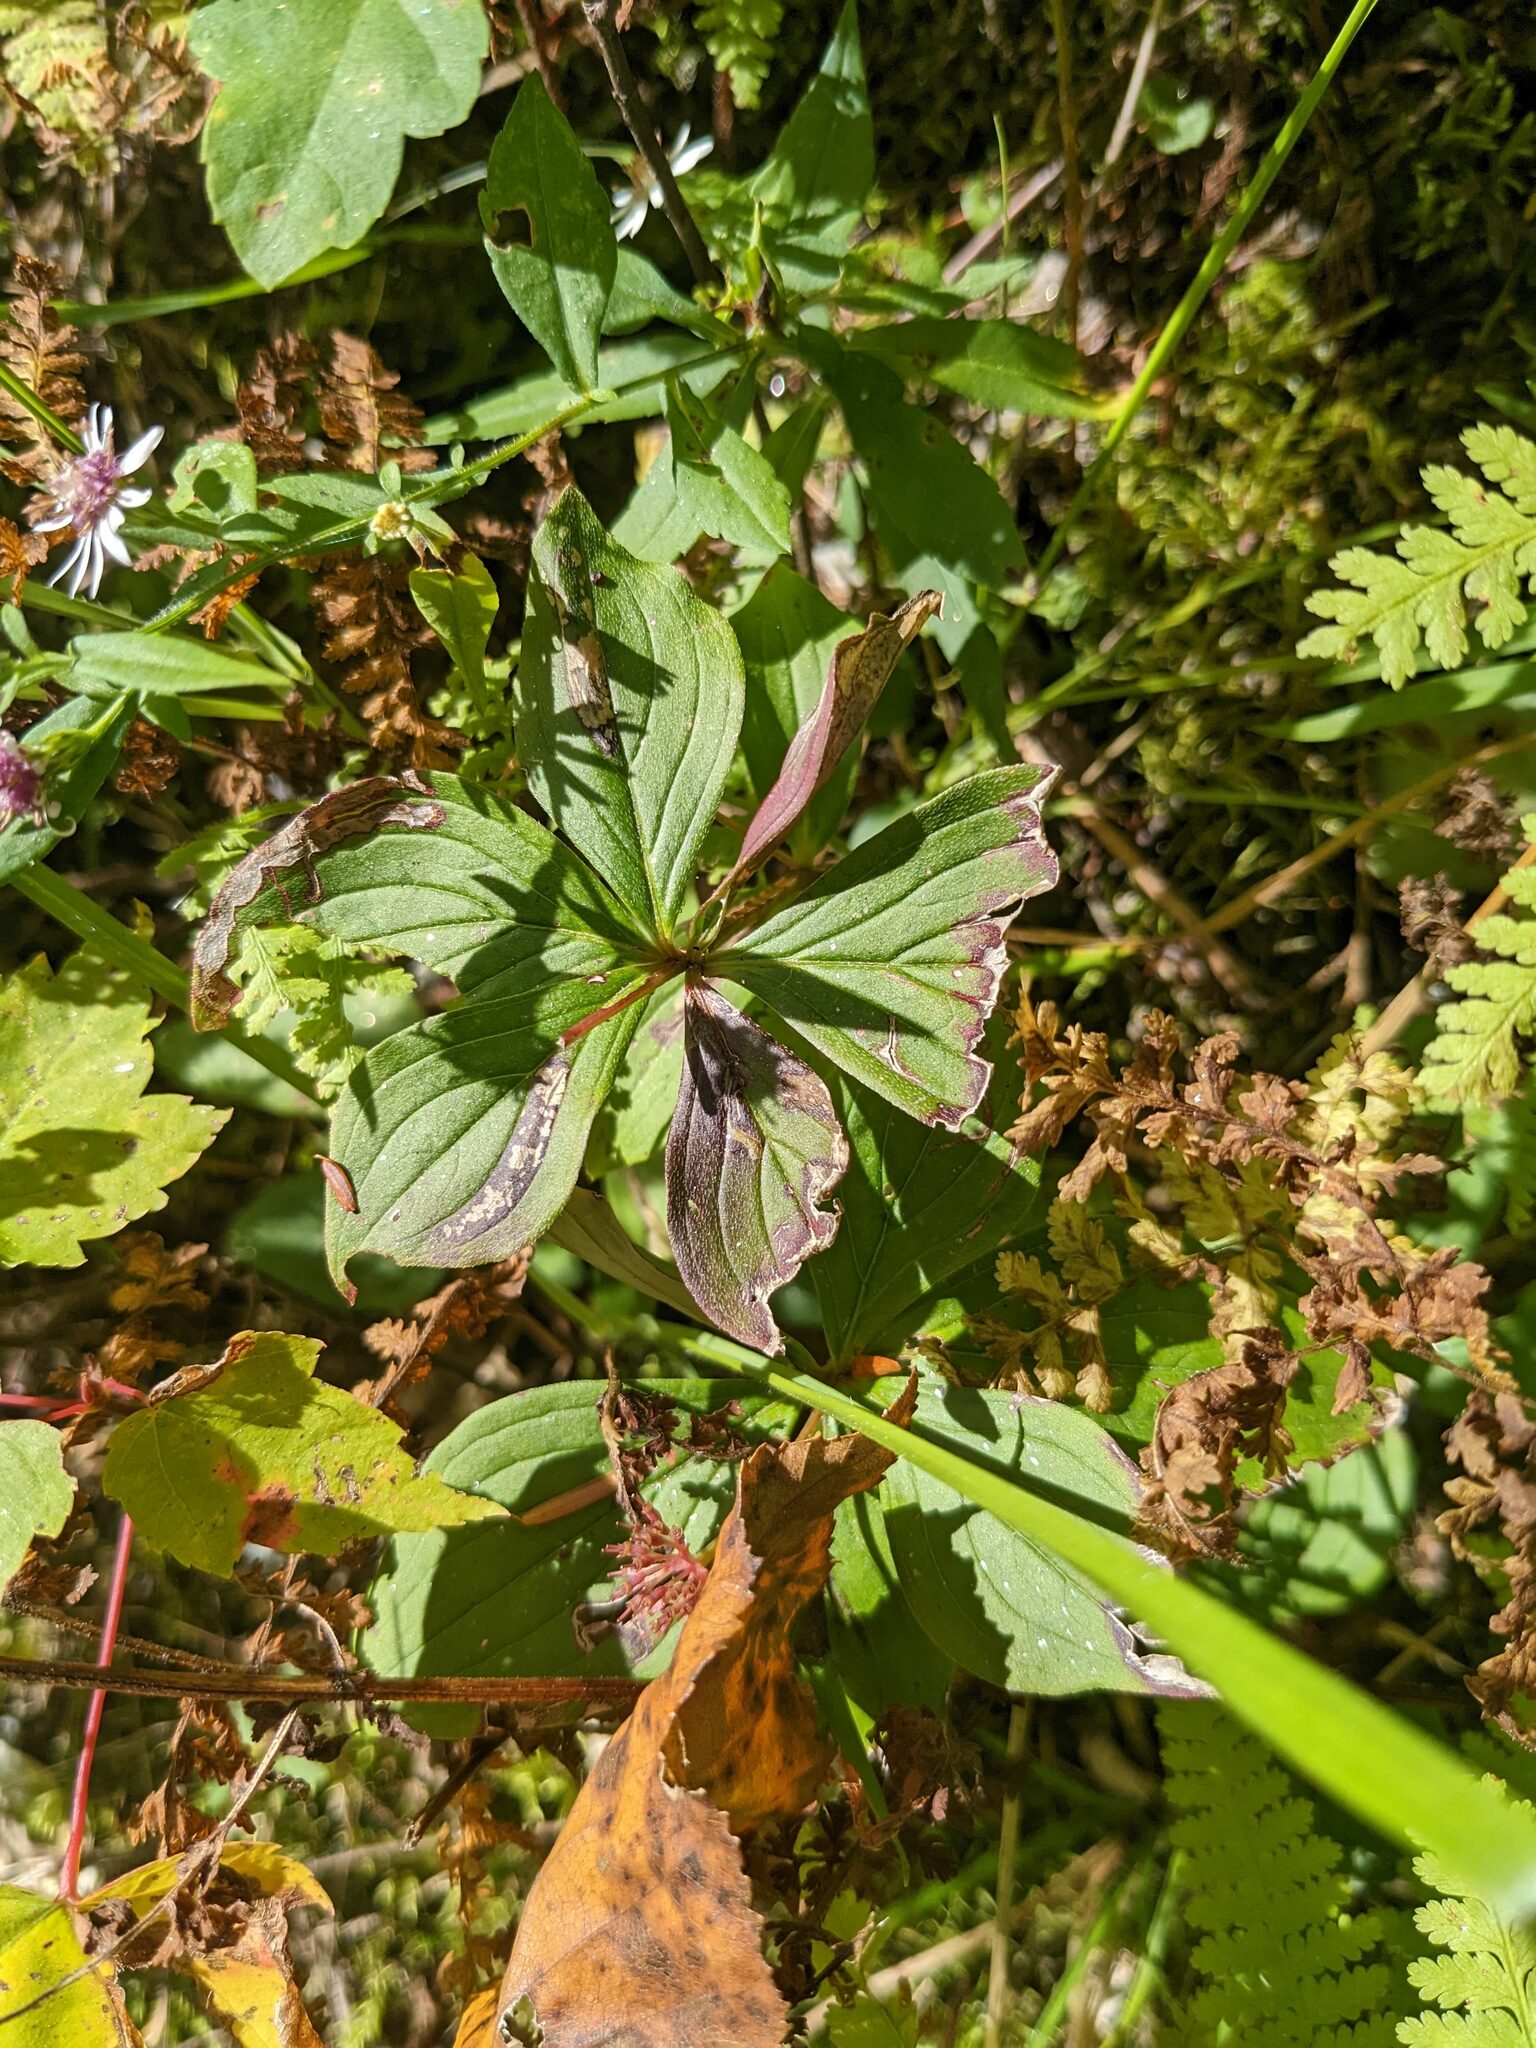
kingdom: Plantae
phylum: Tracheophyta
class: Magnoliopsida
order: Cornales
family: Cornaceae
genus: Cornus
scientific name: Cornus canadensis
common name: Creeping dogwood
